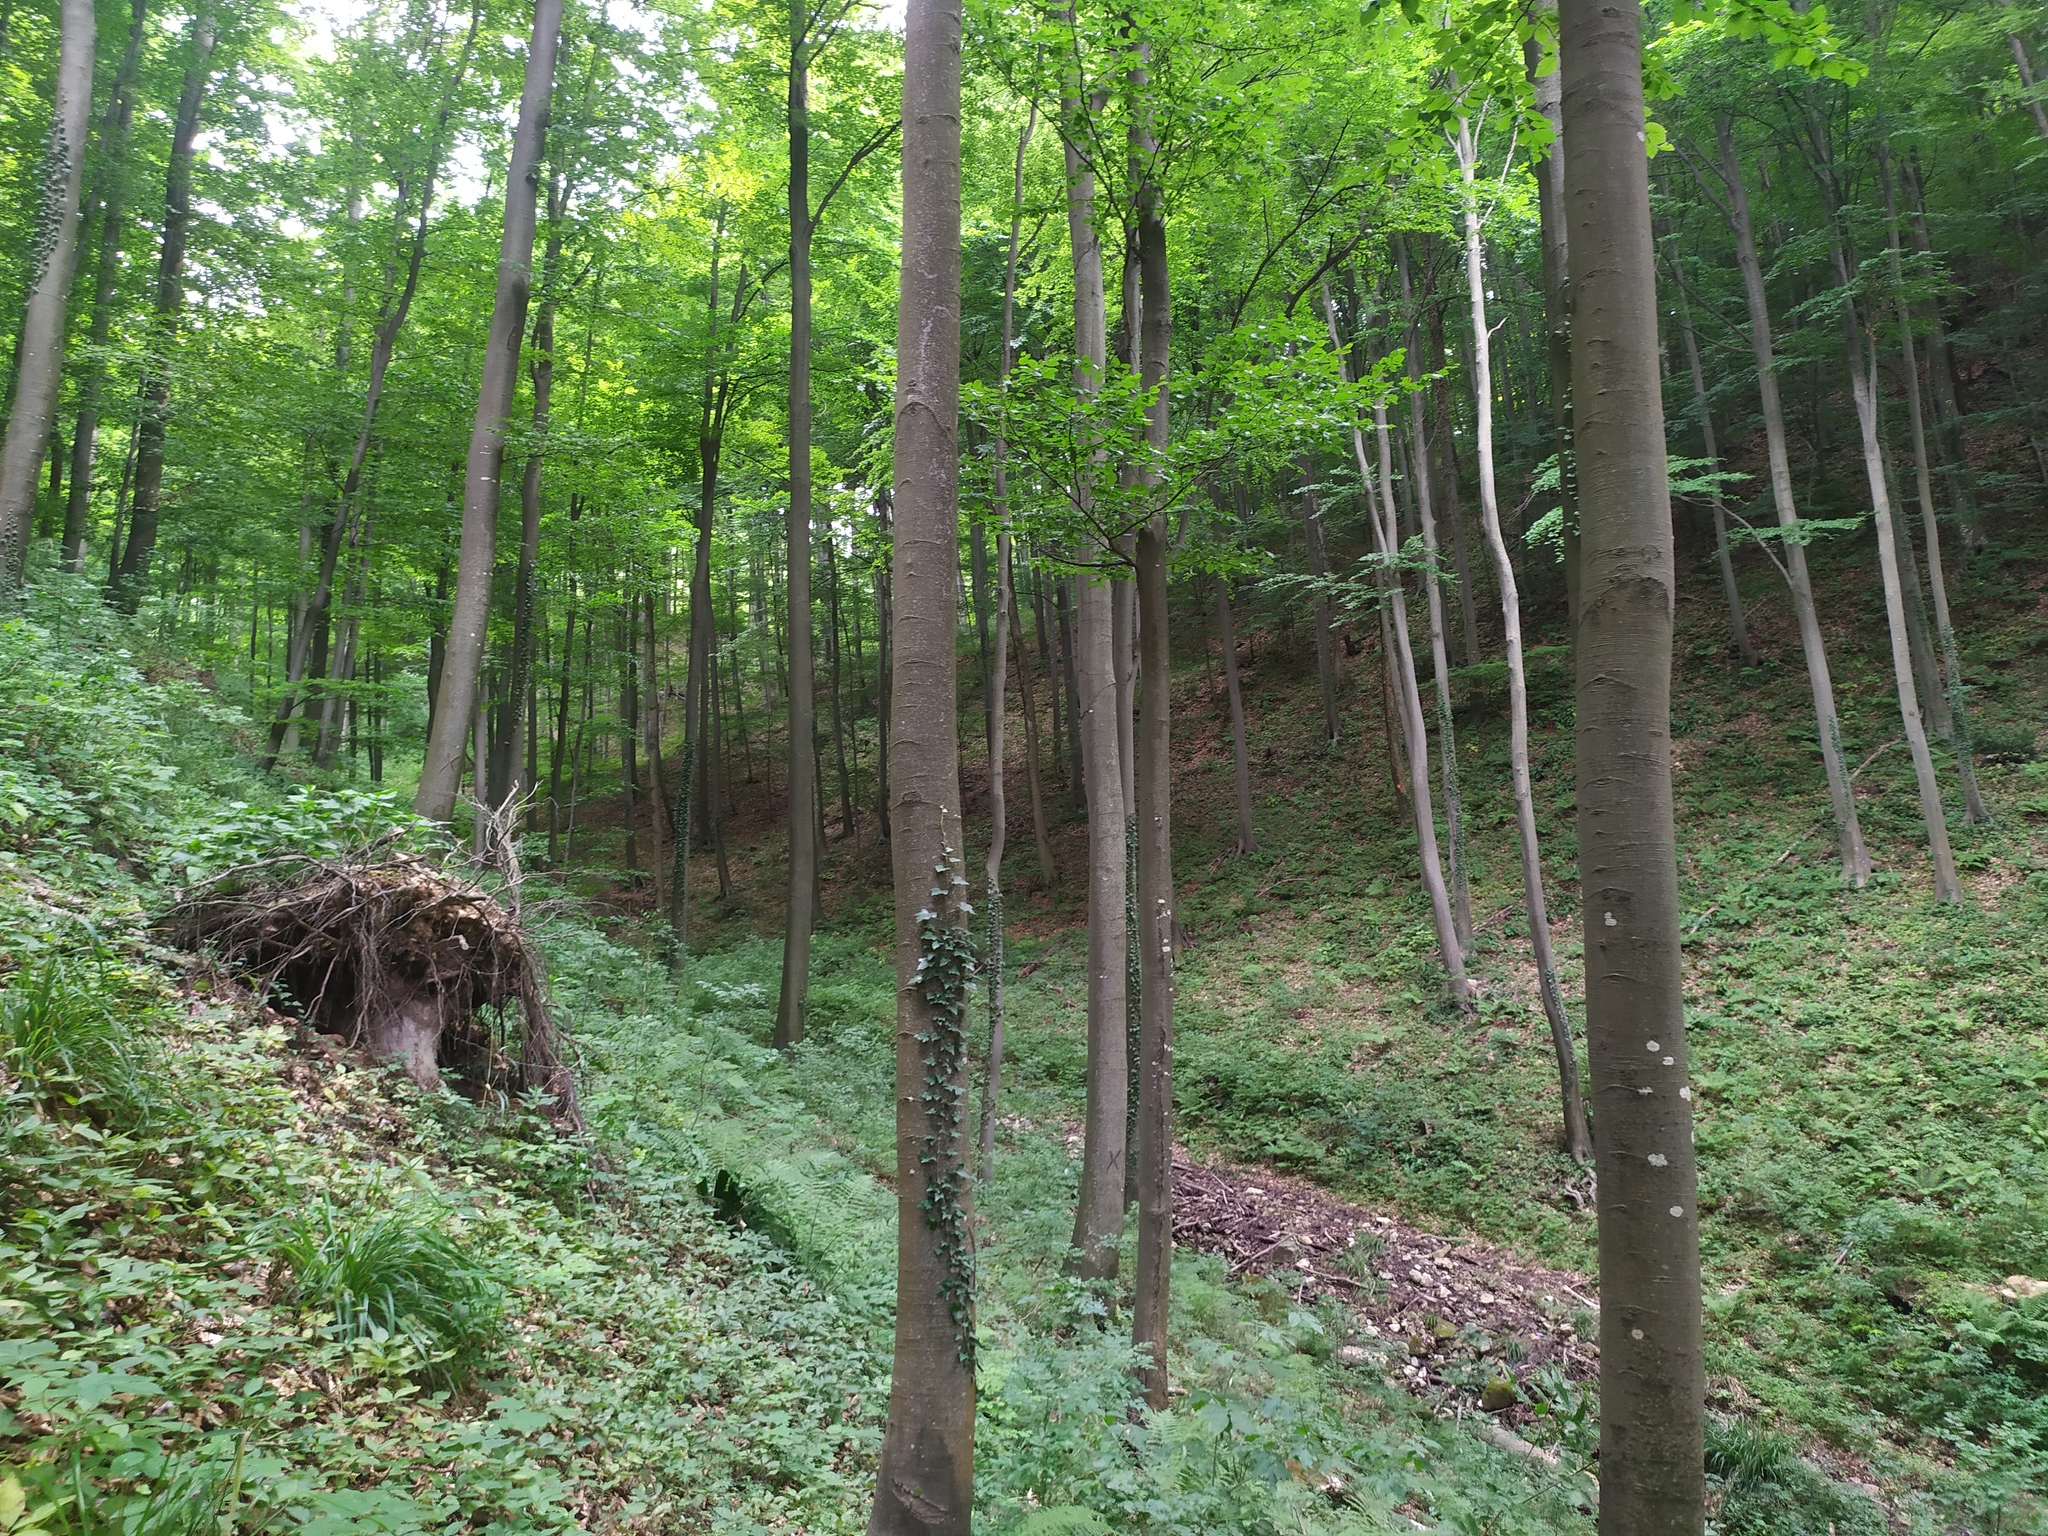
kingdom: Plantae
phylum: Tracheophyta
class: Magnoliopsida
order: Fagales
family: Fagaceae
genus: Fagus
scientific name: Fagus sylvatica
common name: Beech
